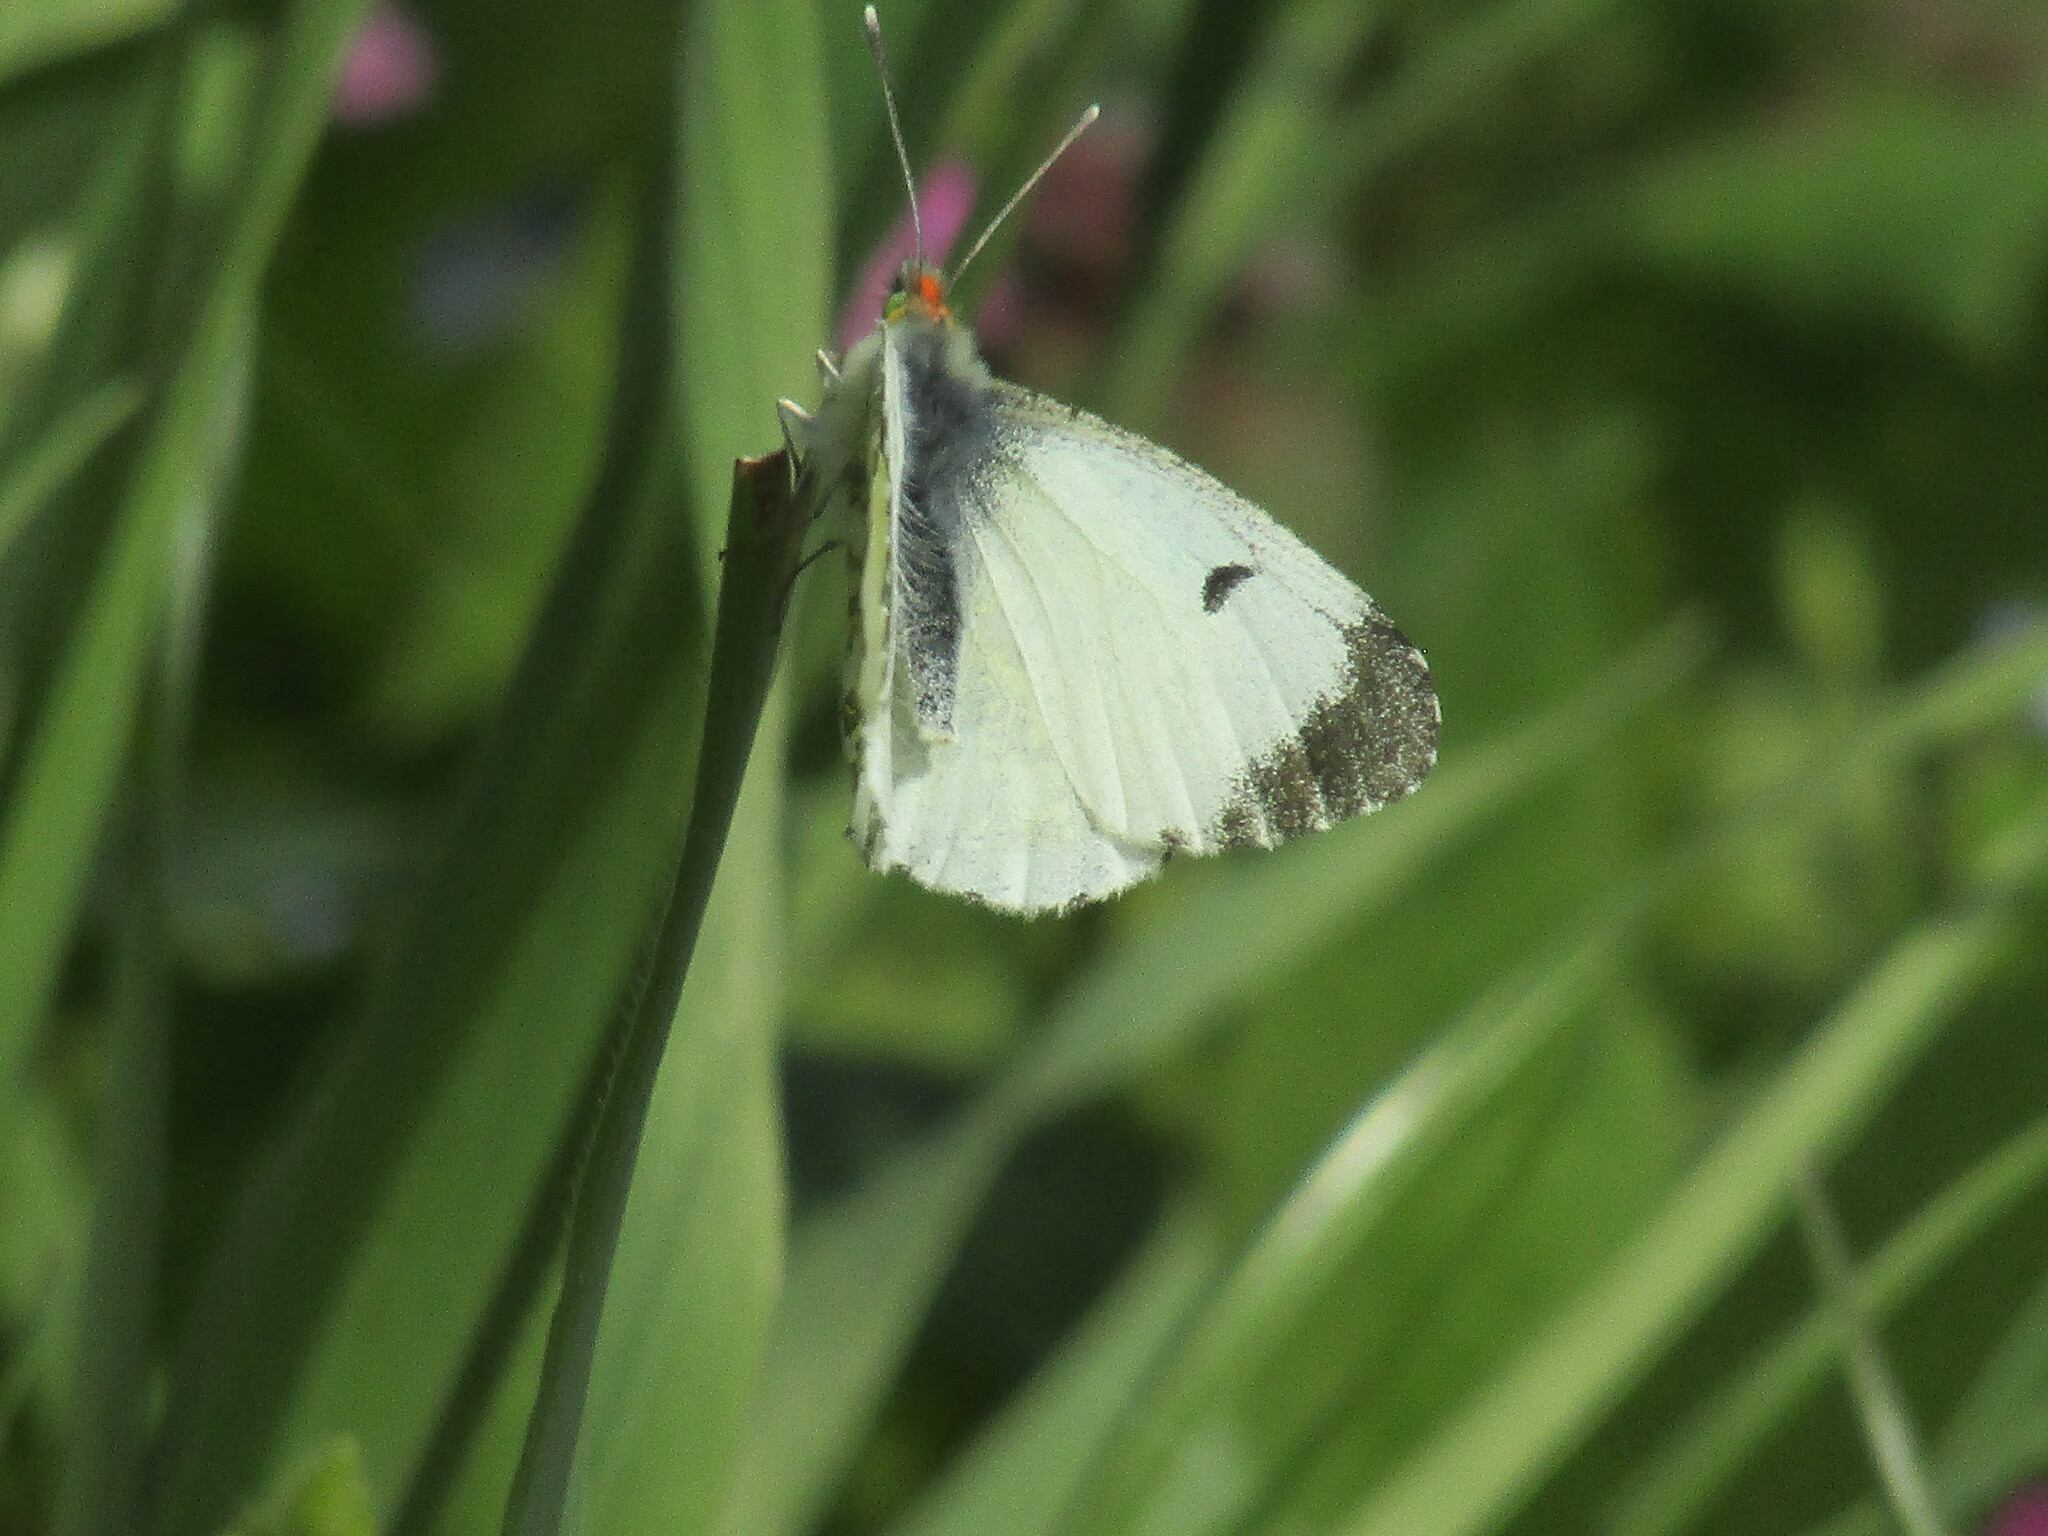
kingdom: Animalia
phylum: Arthropoda
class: Insecta
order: Lepidoptera
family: Pieridae
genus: Anthocharis
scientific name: Anthocharis cardamines
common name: Orange-tip
